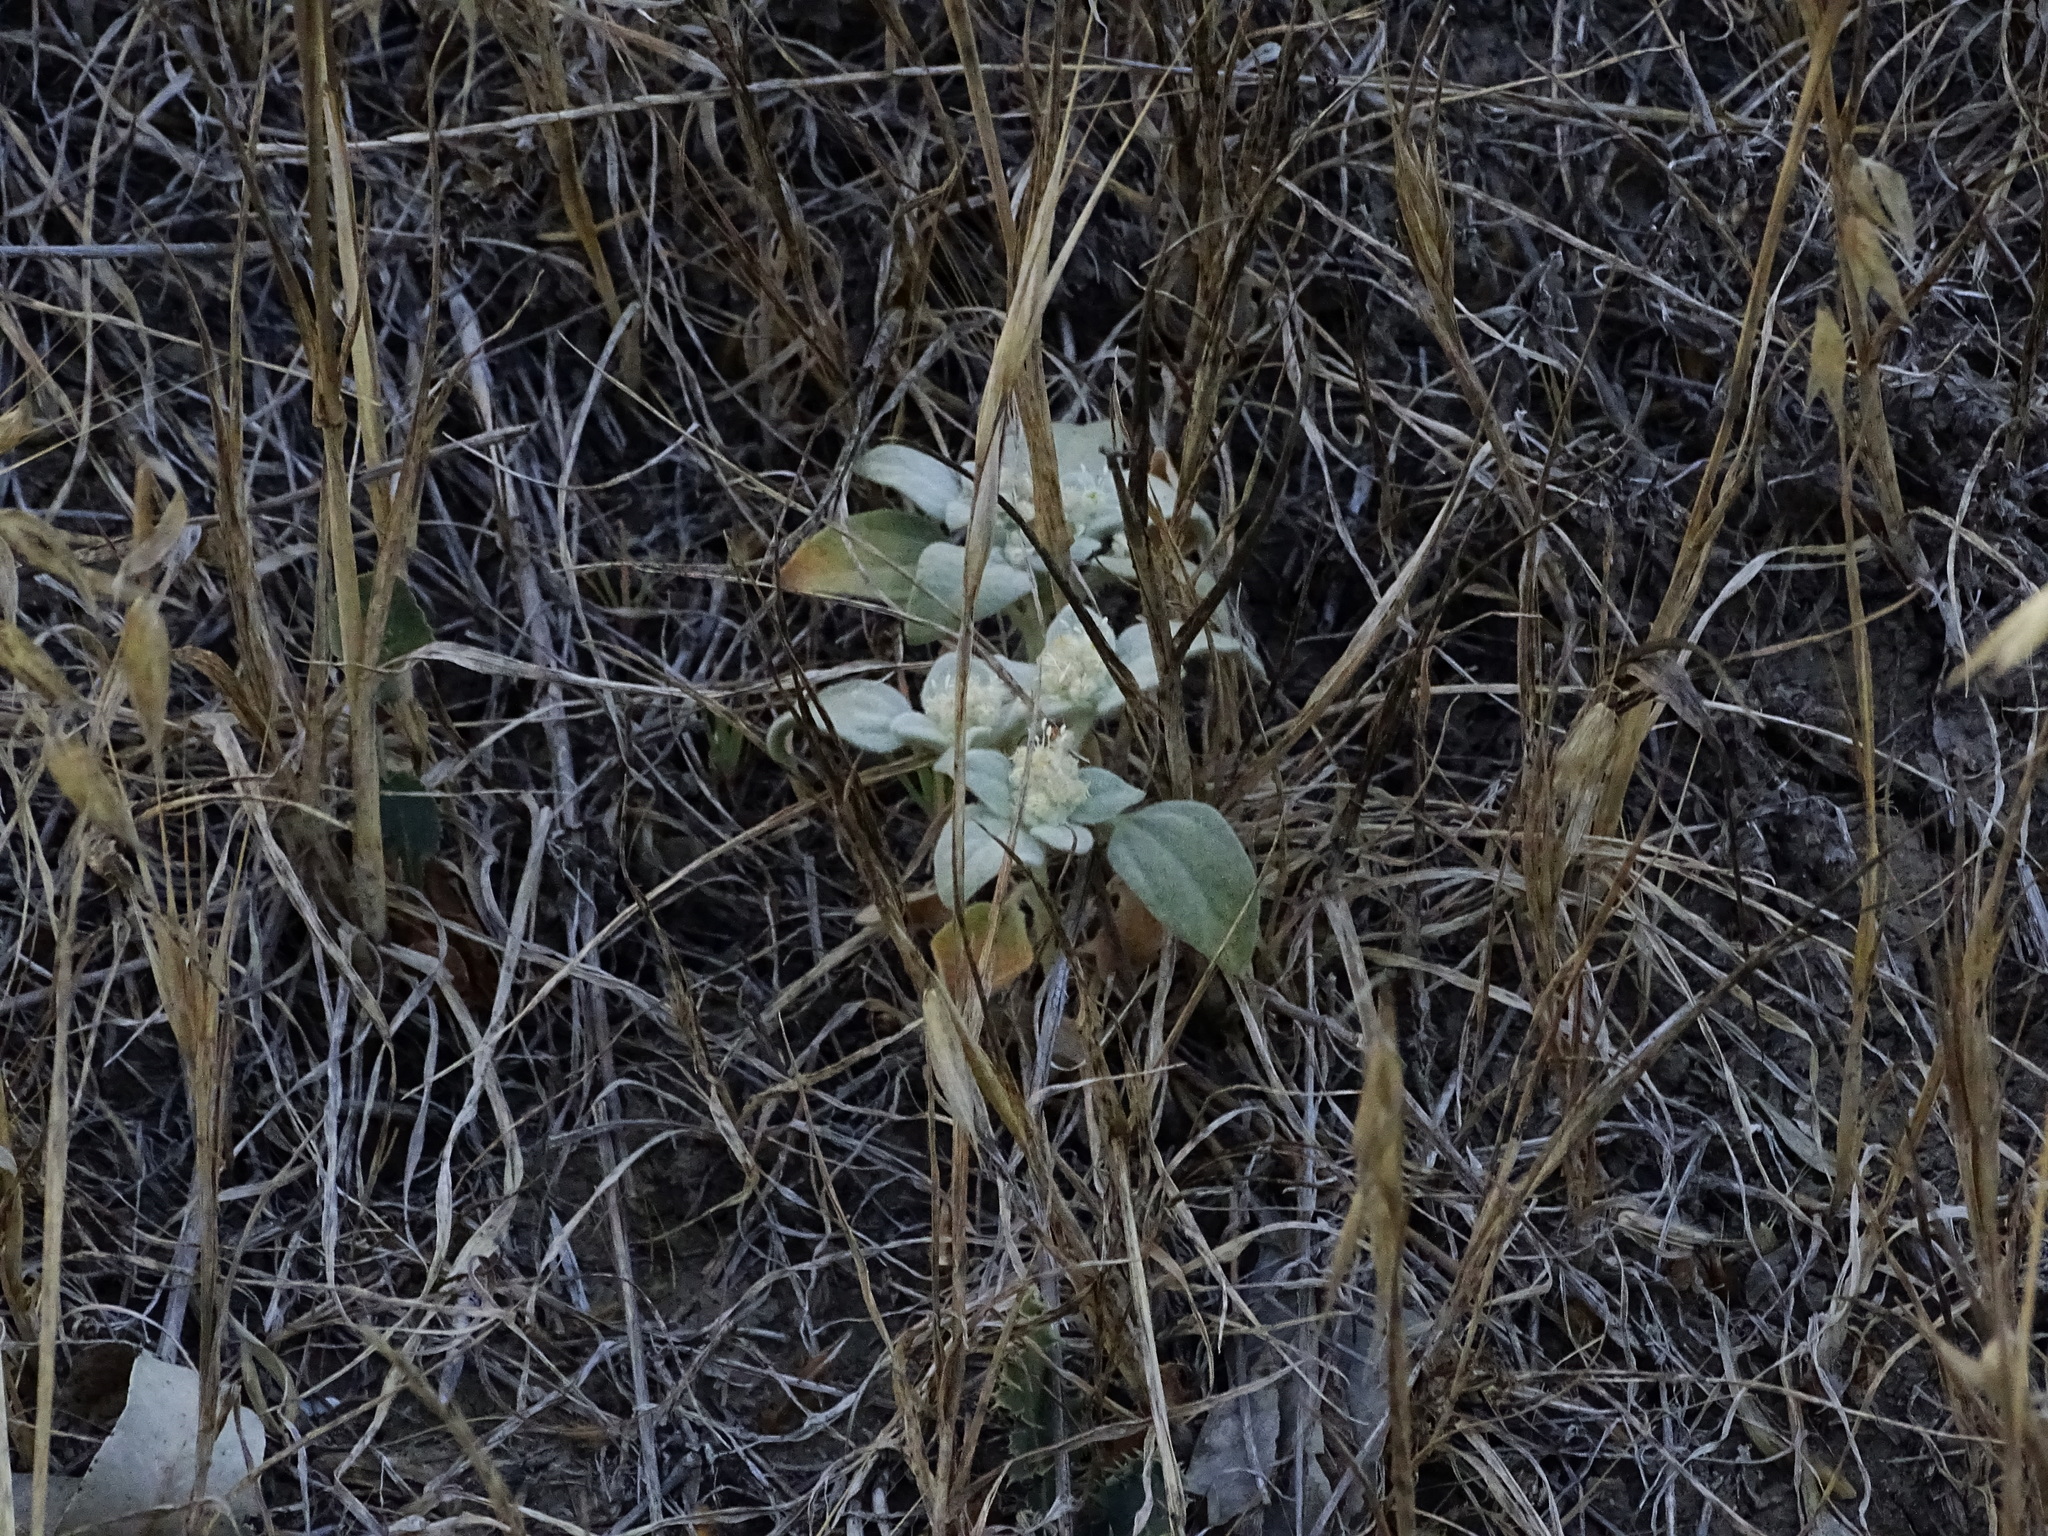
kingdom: Plantae
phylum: Tracheophyta
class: Magnoliopsida
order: Malpighiales
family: Euphorbiaceae
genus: Croton
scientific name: Croton setiger
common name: Dove weed
